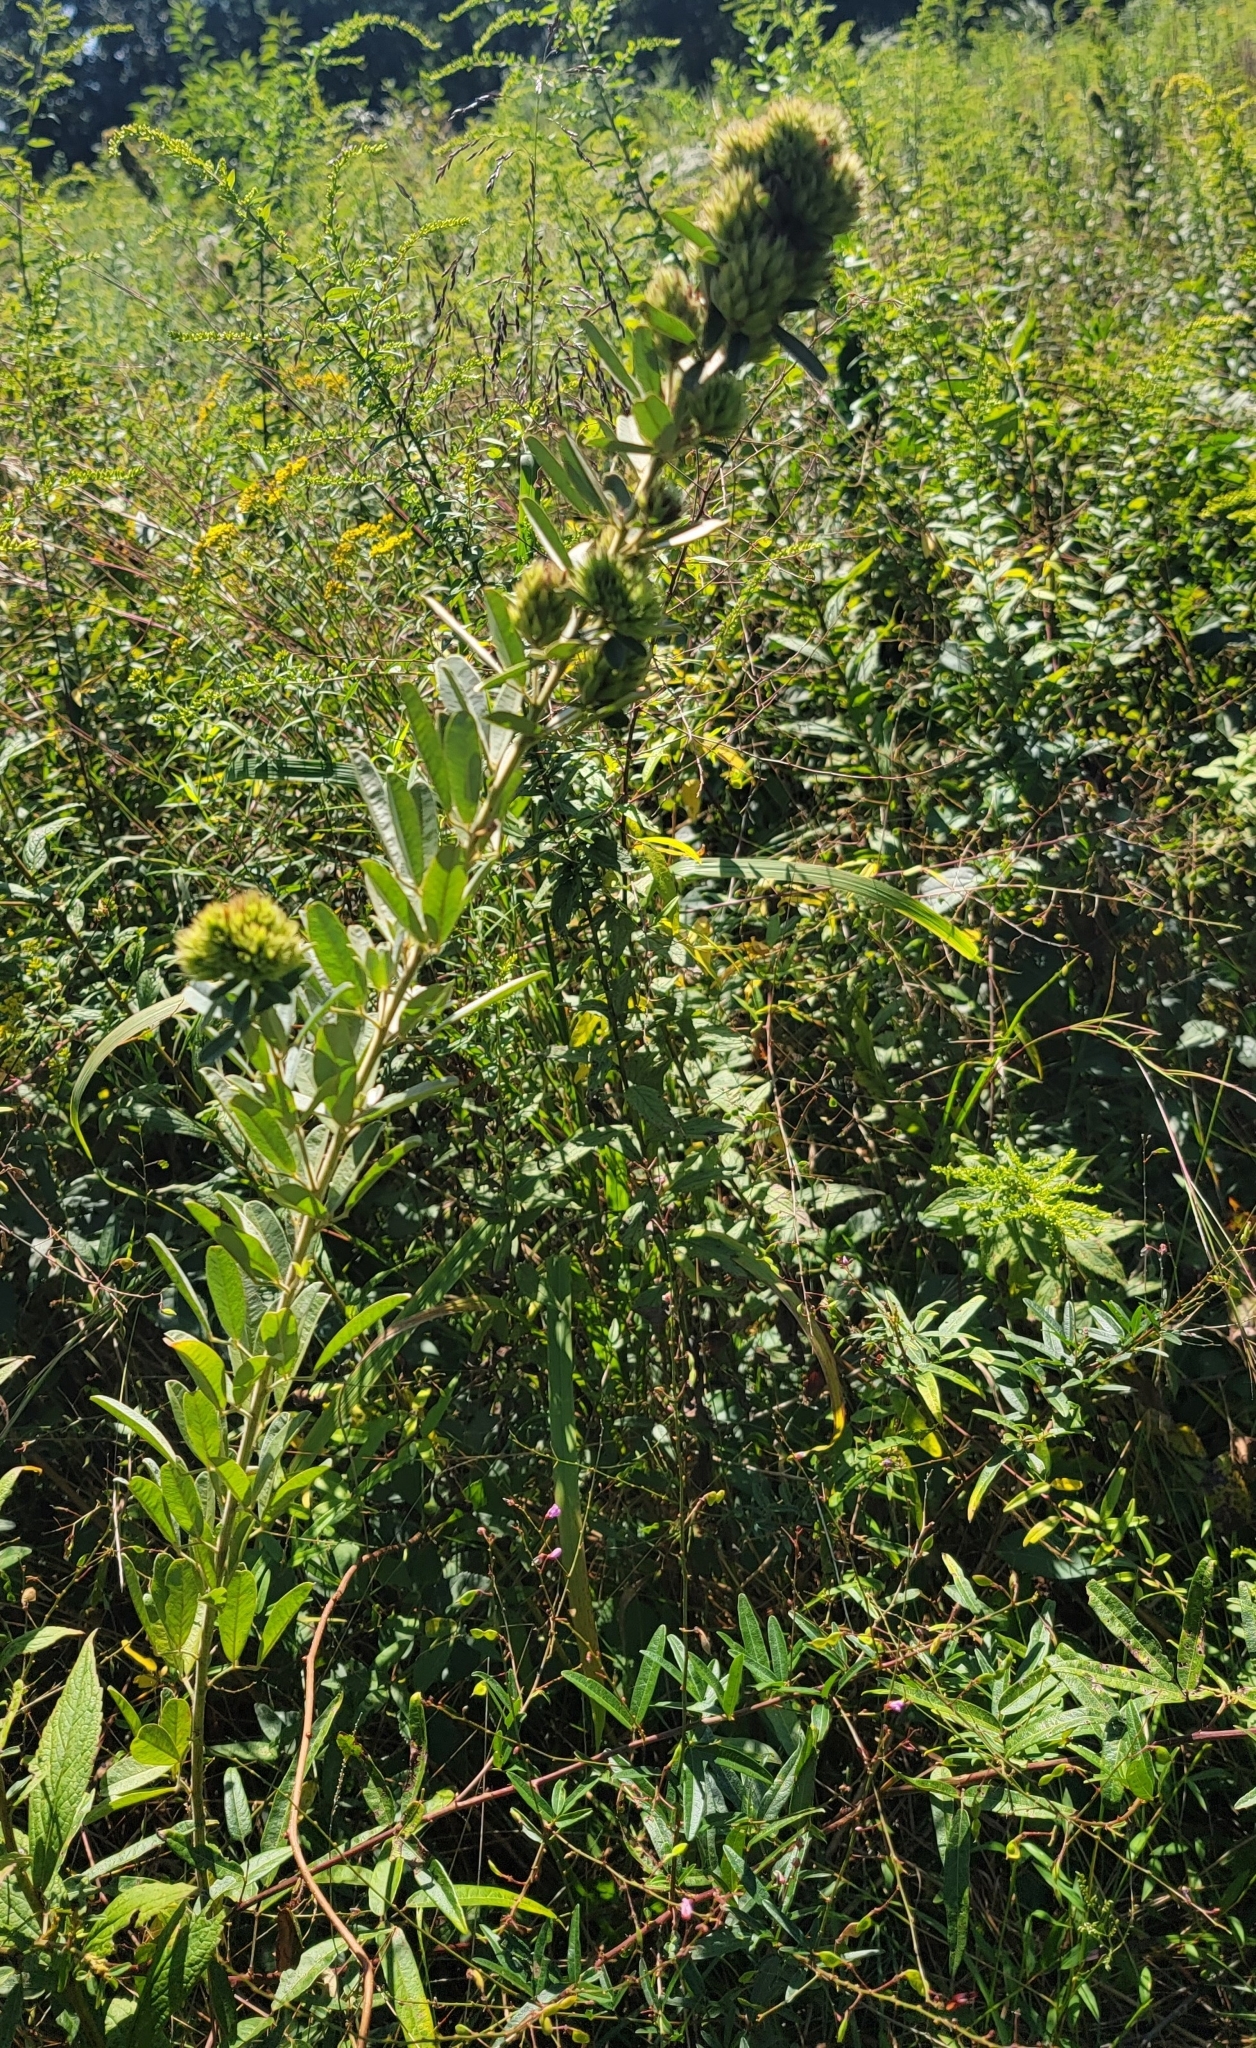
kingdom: Plantae
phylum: Tracheophyta
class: Magnoliopsida
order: Fabales
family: Fabaceae
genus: Lespedeza
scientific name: Lespedeza capitata
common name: Dusty clover
